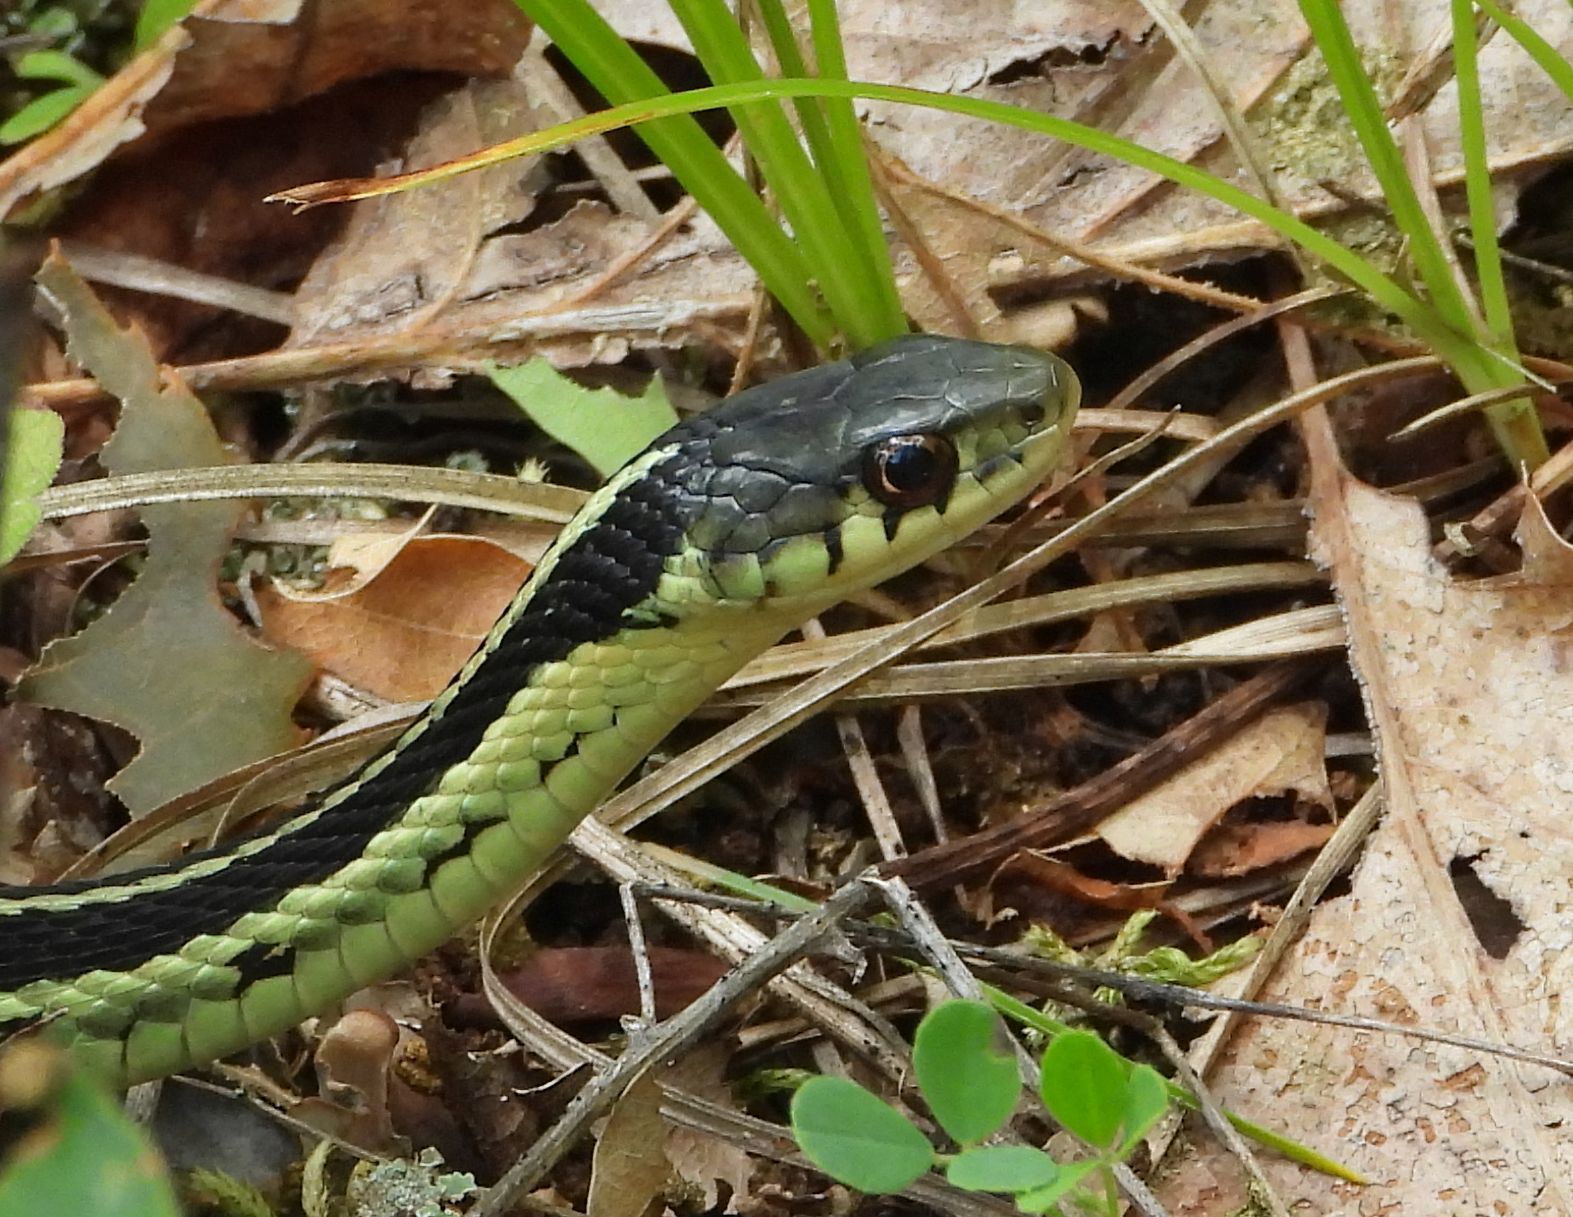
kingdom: Animalia
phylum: Chordata
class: Squamata
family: Colubridae
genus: Thamnophis
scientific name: Thamnophis sirtalis
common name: Common garter snake
